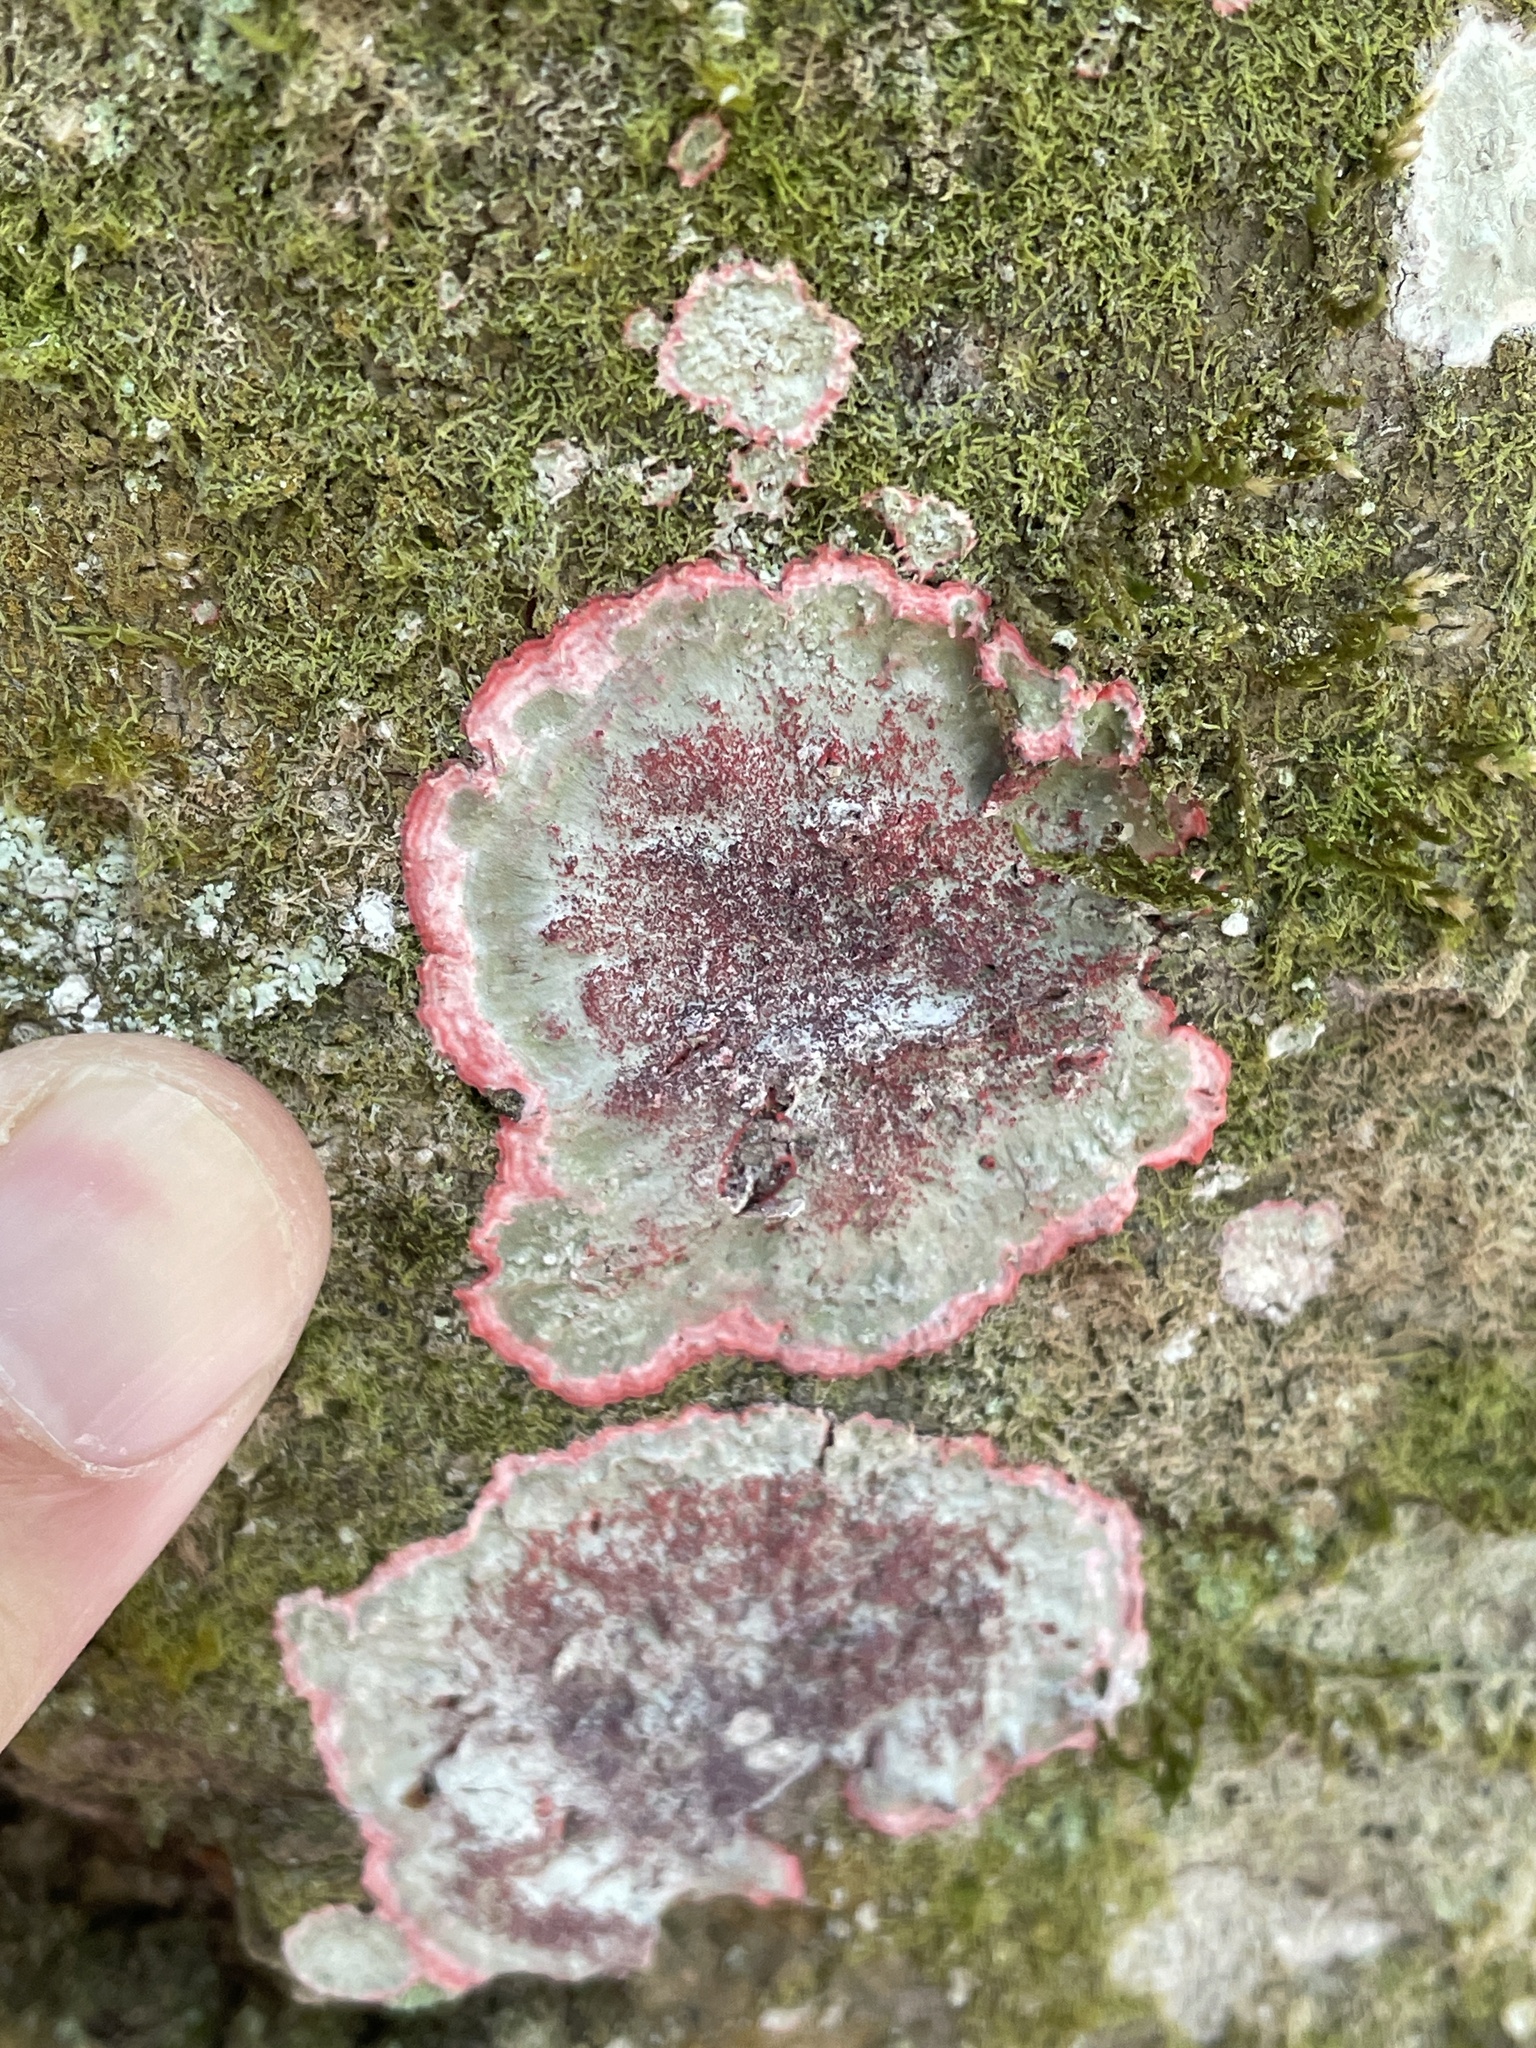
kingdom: Fungi
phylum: Ascomycota
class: Arthoniomycetes
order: Arthoniales
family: Arthoniaceae
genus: Herpothallon
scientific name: Herpothallon rubrocinctum
